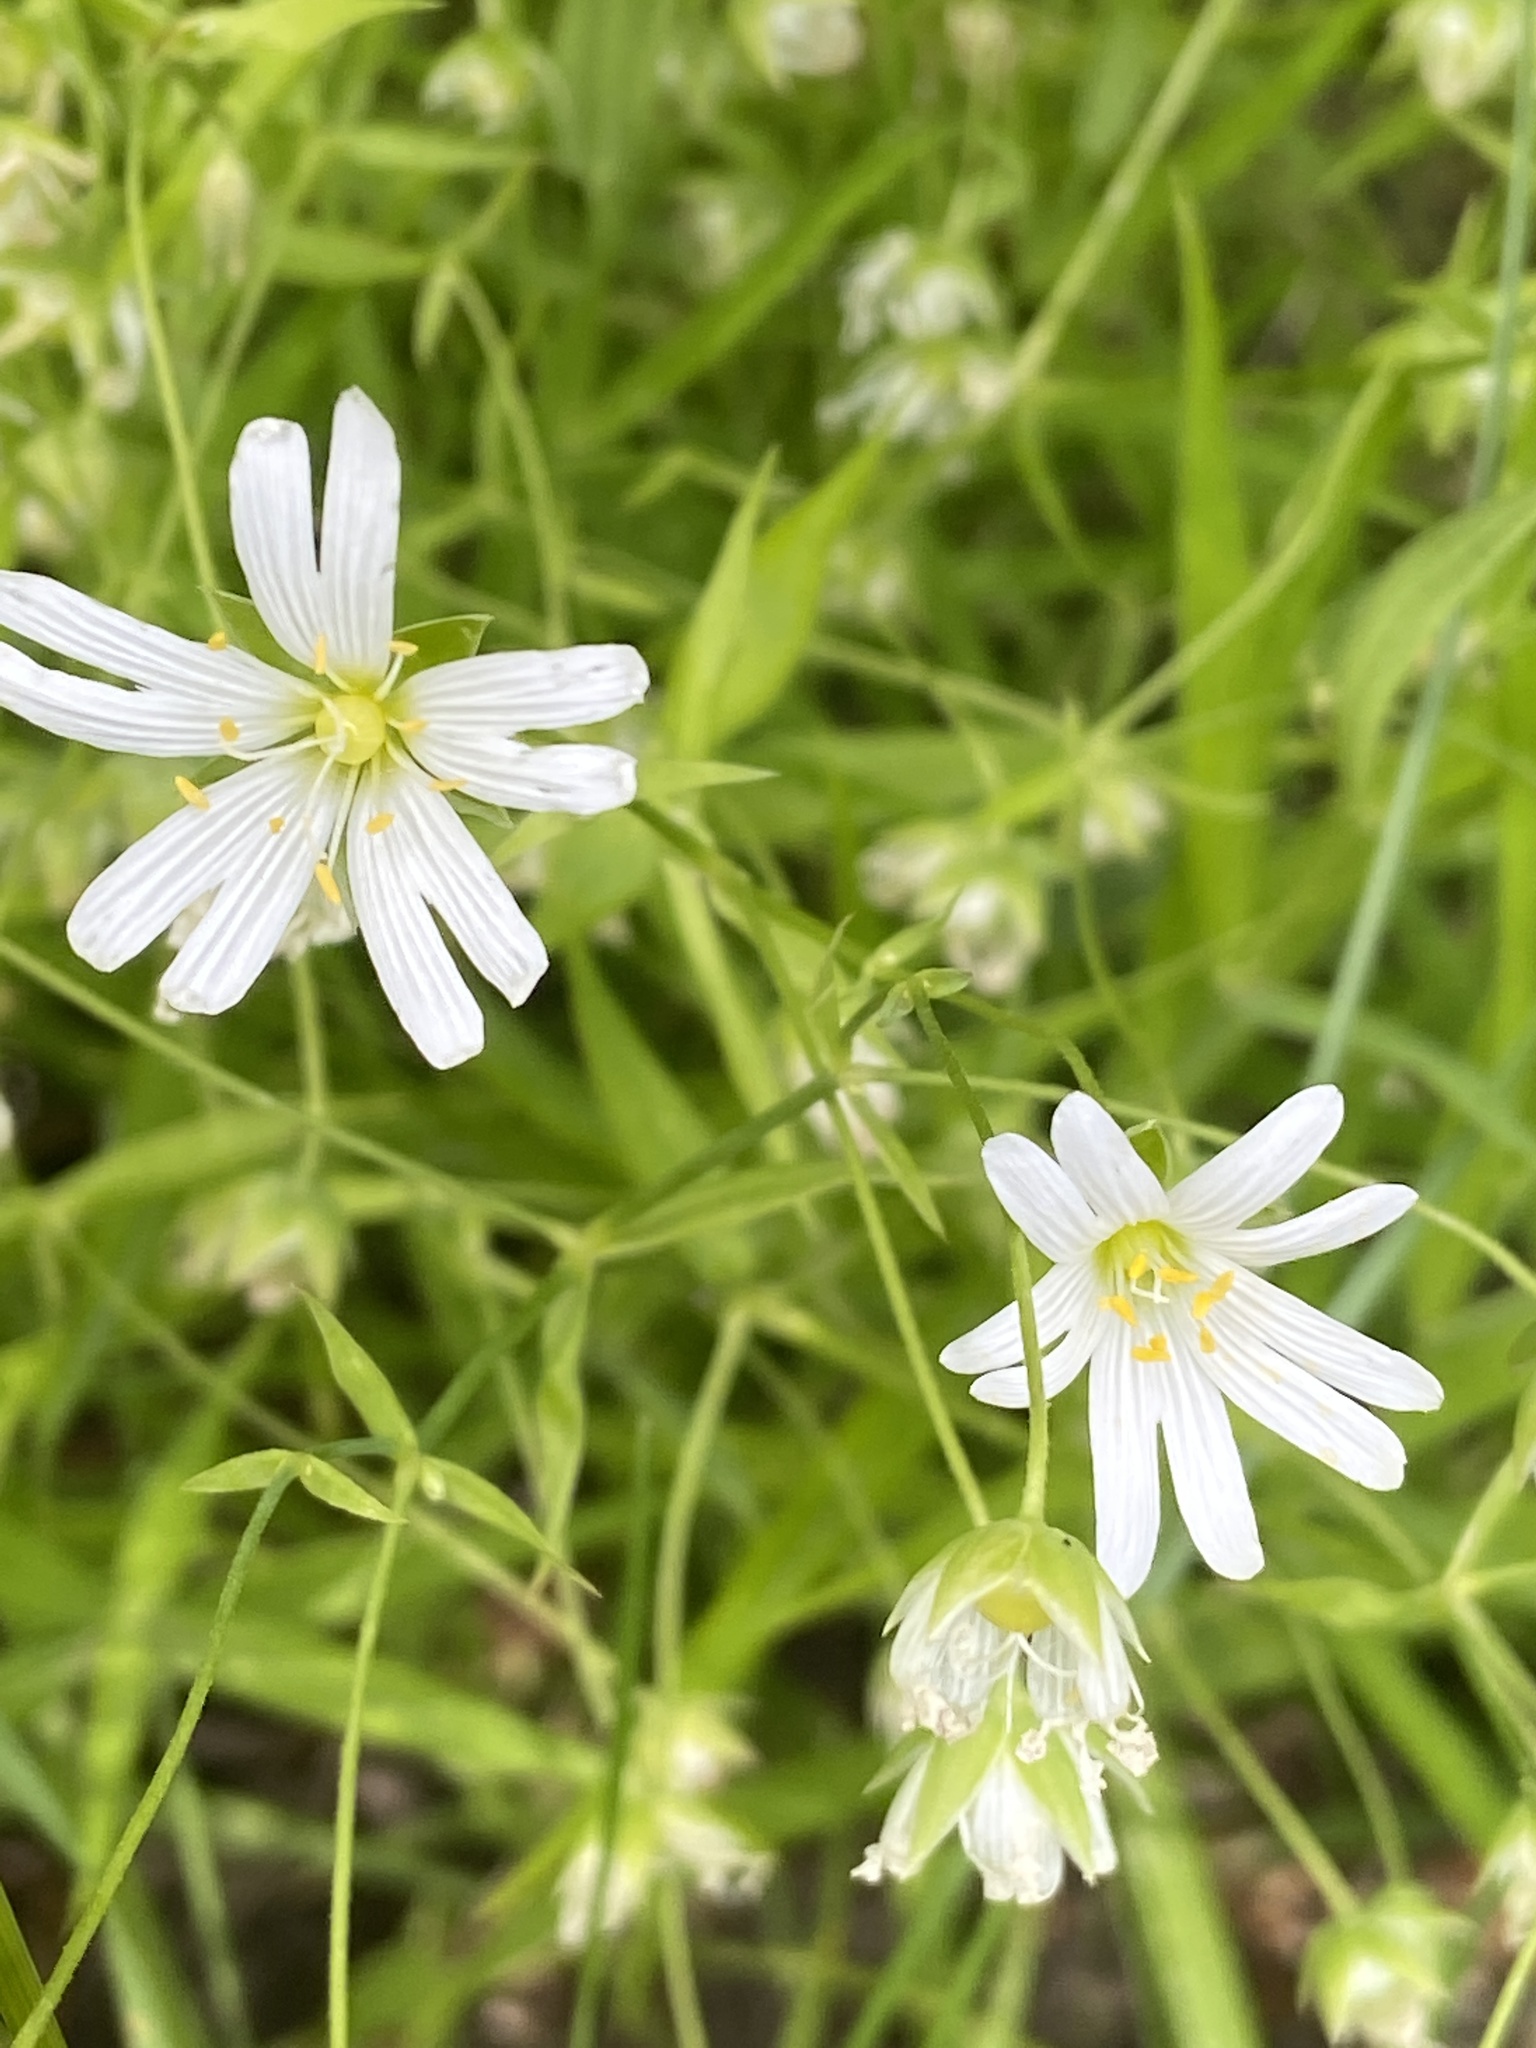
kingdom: Plantae
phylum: Tracheophyta
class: Magnoliopsida
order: Caryophyllales
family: Caryophyllaceae
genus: Rabelera
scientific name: Rabelera holostea
